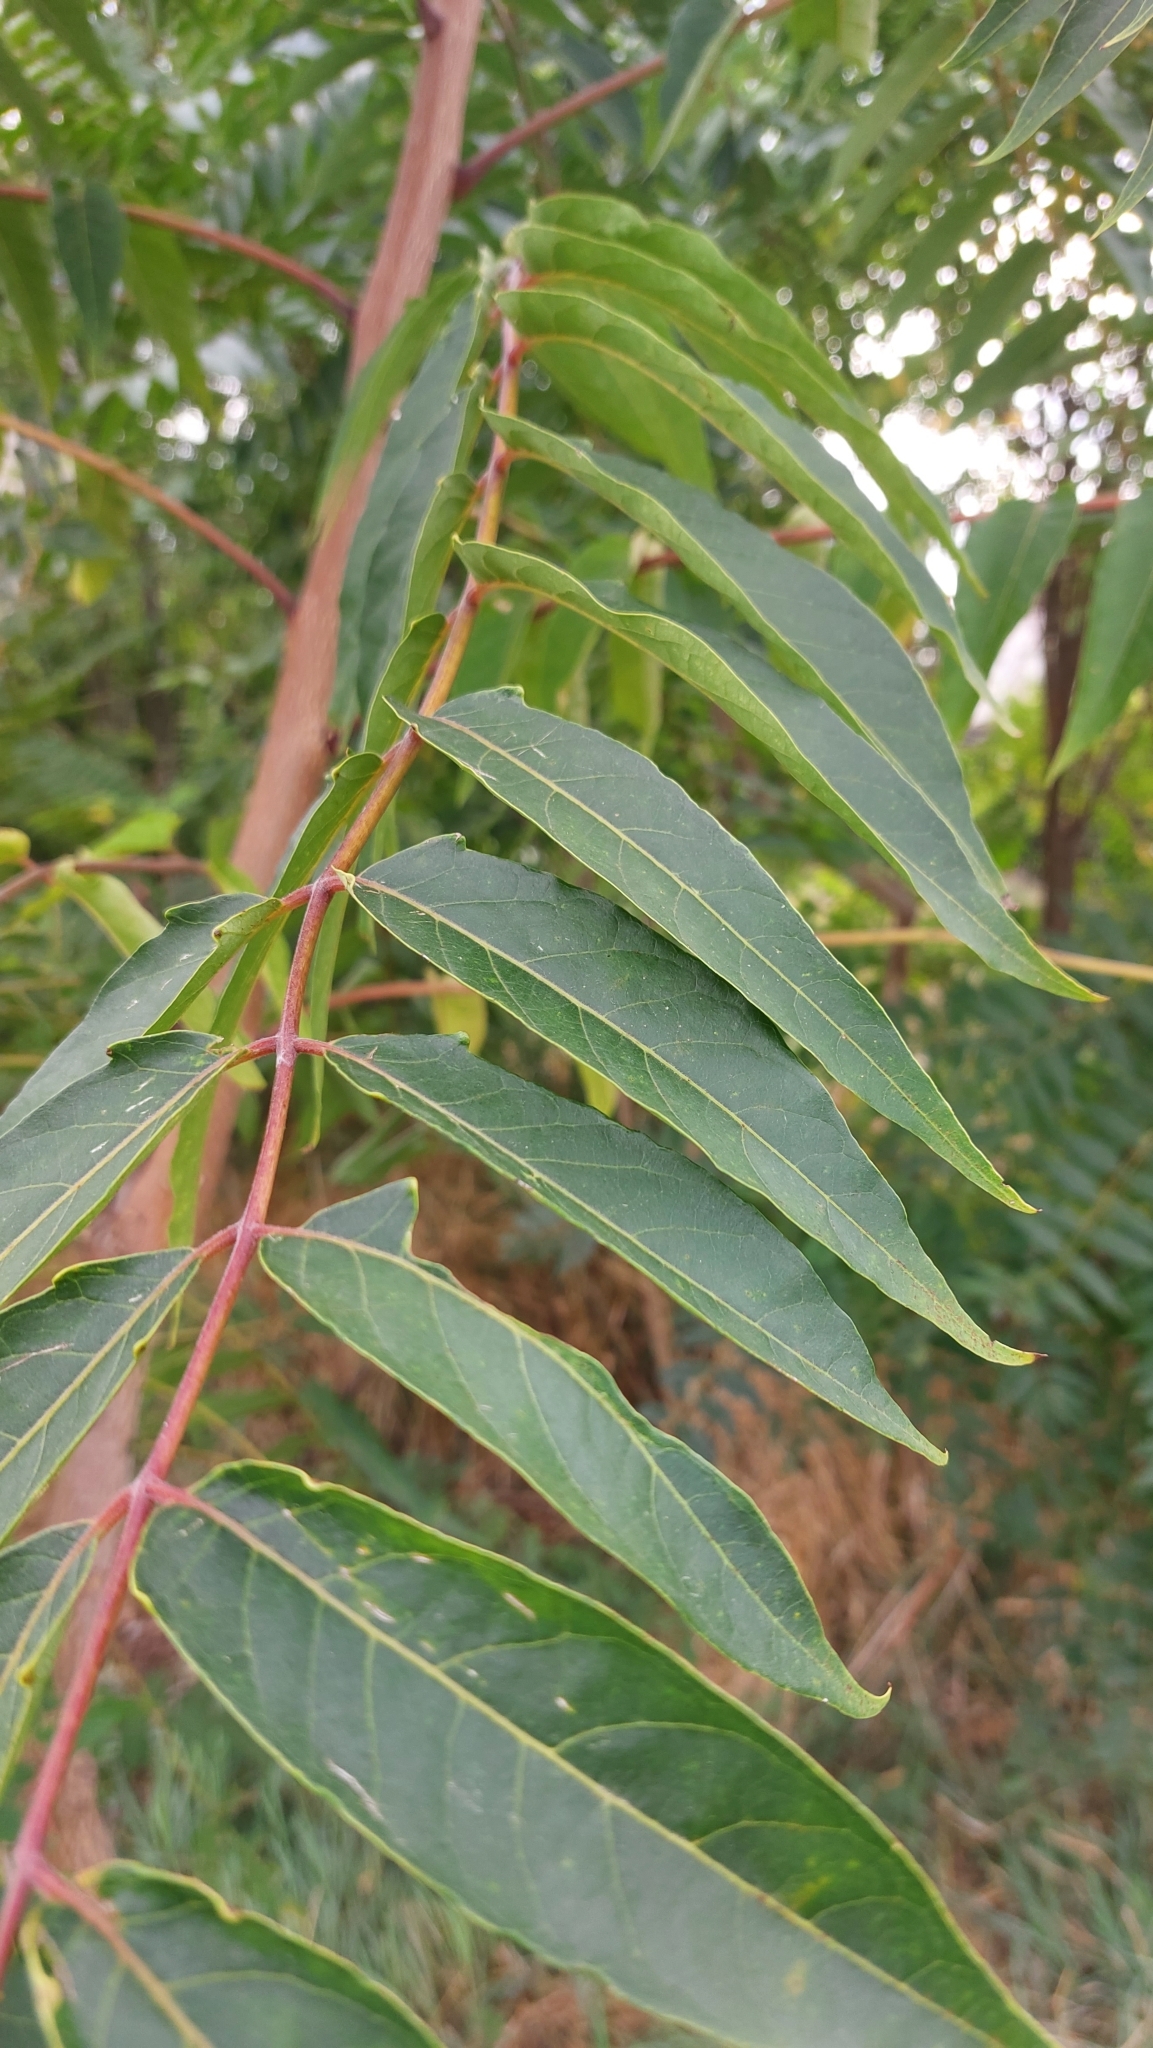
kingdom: Plantae
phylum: Tracheophyta
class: Magnoliopsida
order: Sapindales
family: Simaroubaceae
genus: Ailanthus
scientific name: Ailanthus altissima
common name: Tree-of-heaven
